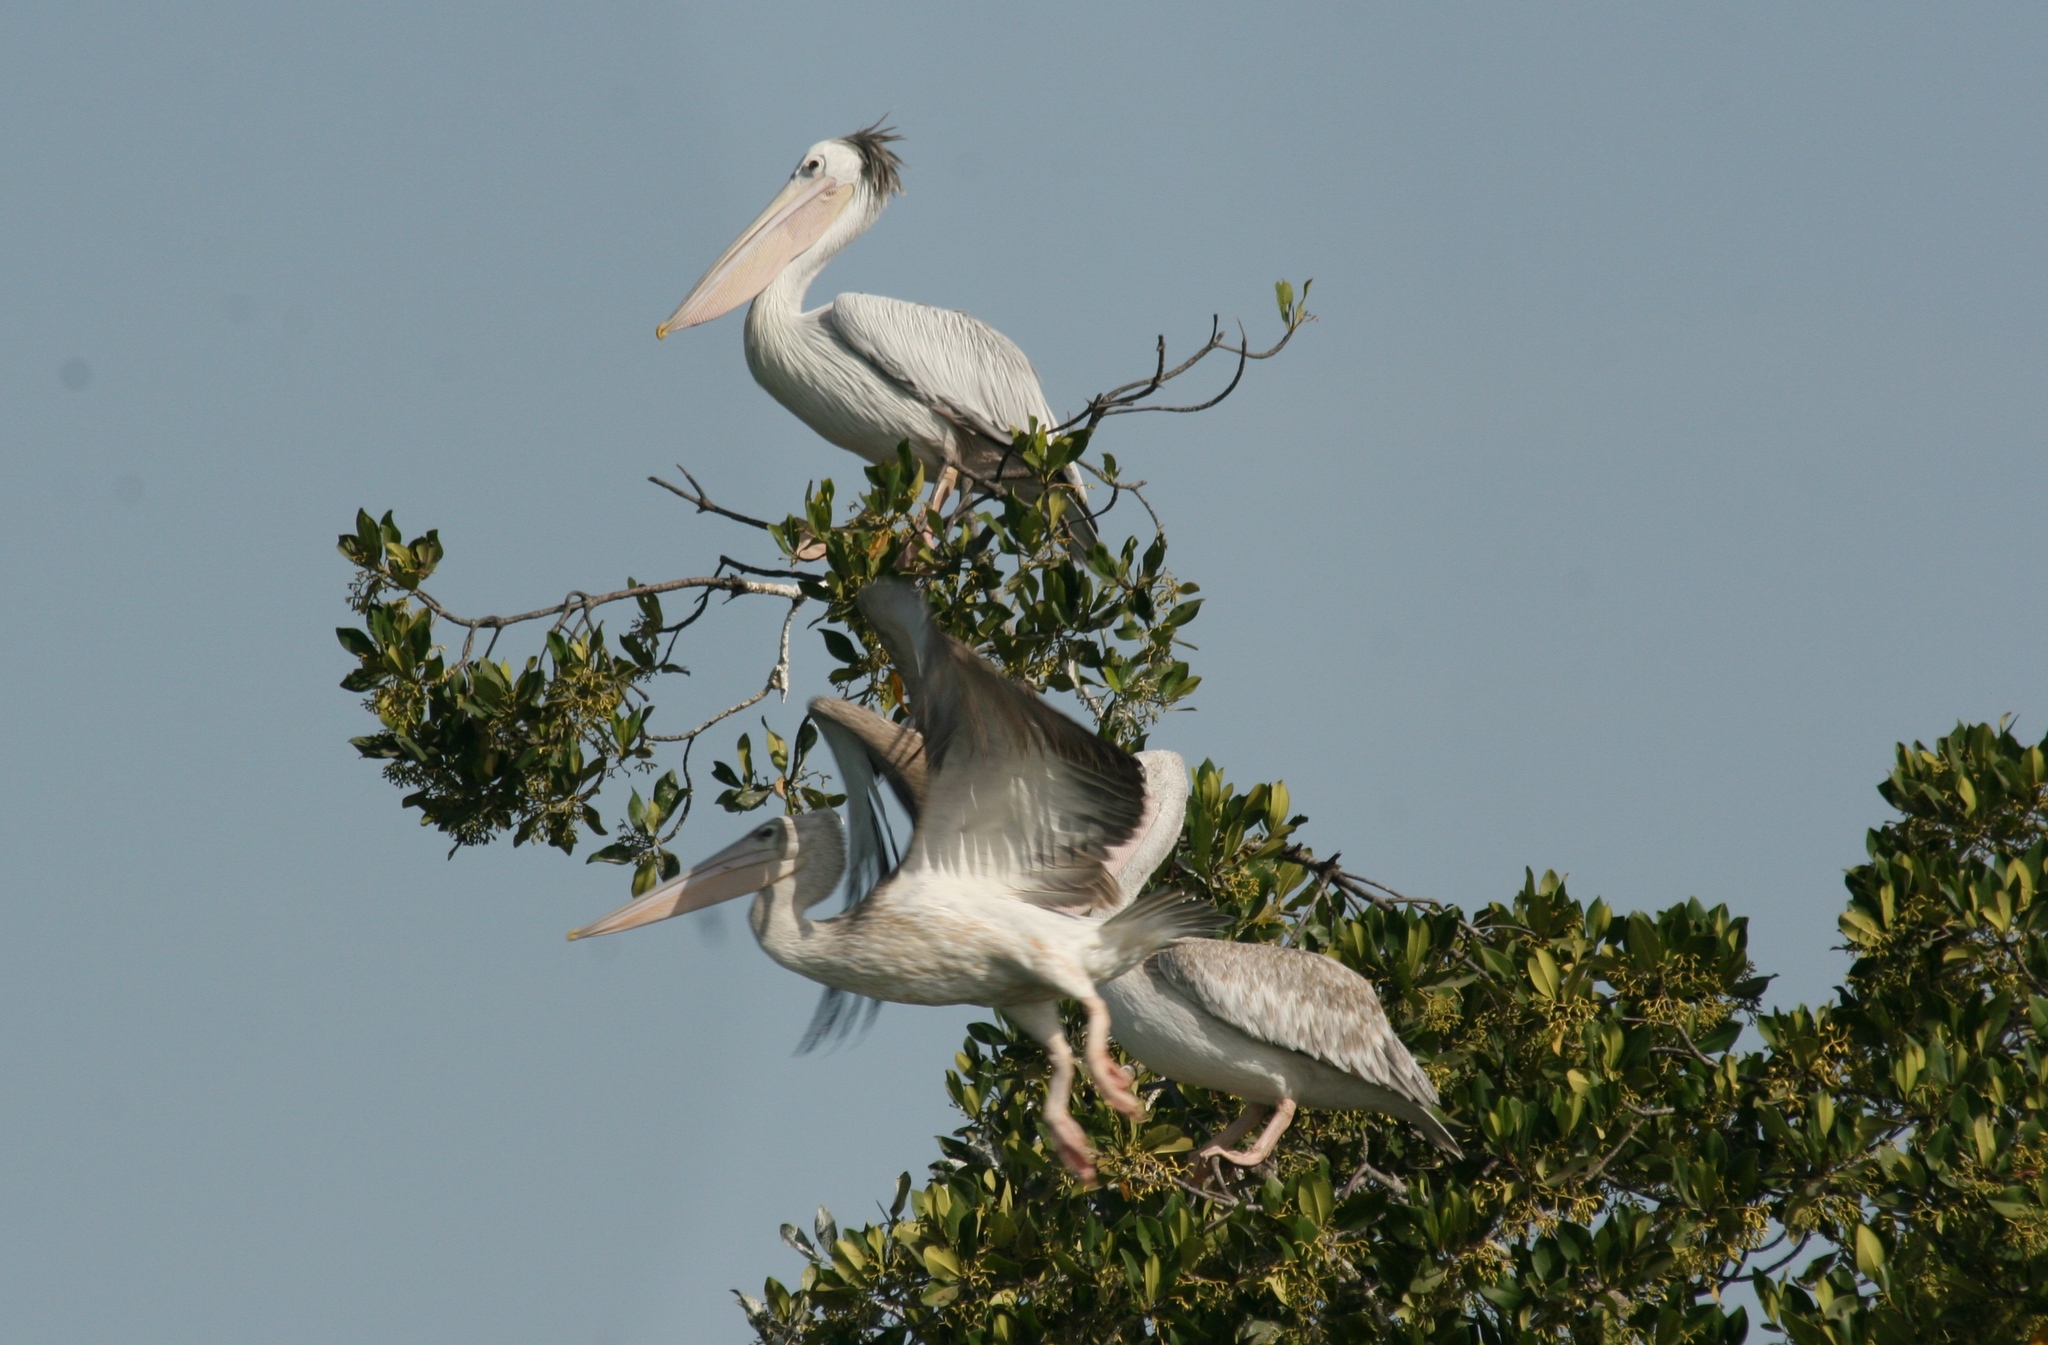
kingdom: Animalia
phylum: Chordata
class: Aves
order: Pelecaniformes
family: Pelecanidae
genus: Pelecanus
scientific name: Pelecanus rufescens
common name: Pink-backed pelican
